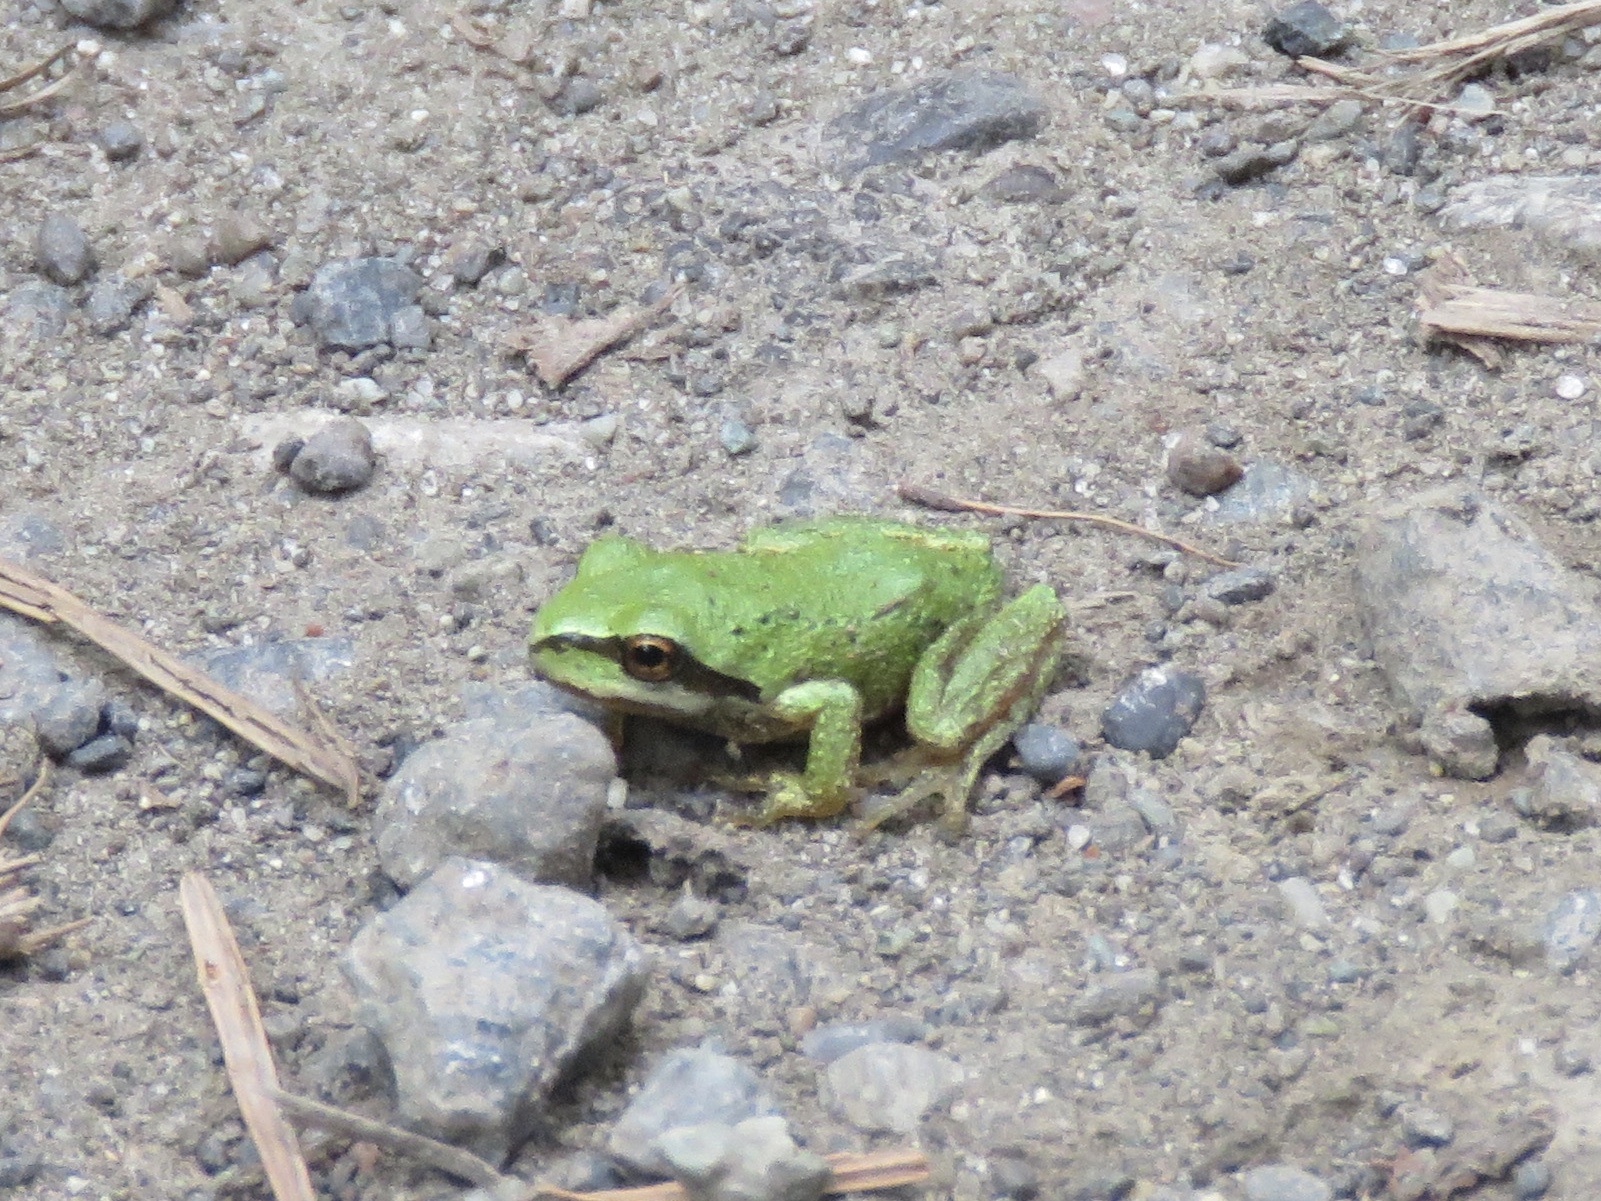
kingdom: Animalia
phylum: Chordata
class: Amphibia
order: Anura
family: Hylidae
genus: Pseudacris
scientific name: Pseudacris regilla
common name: Pacific chorus frog
